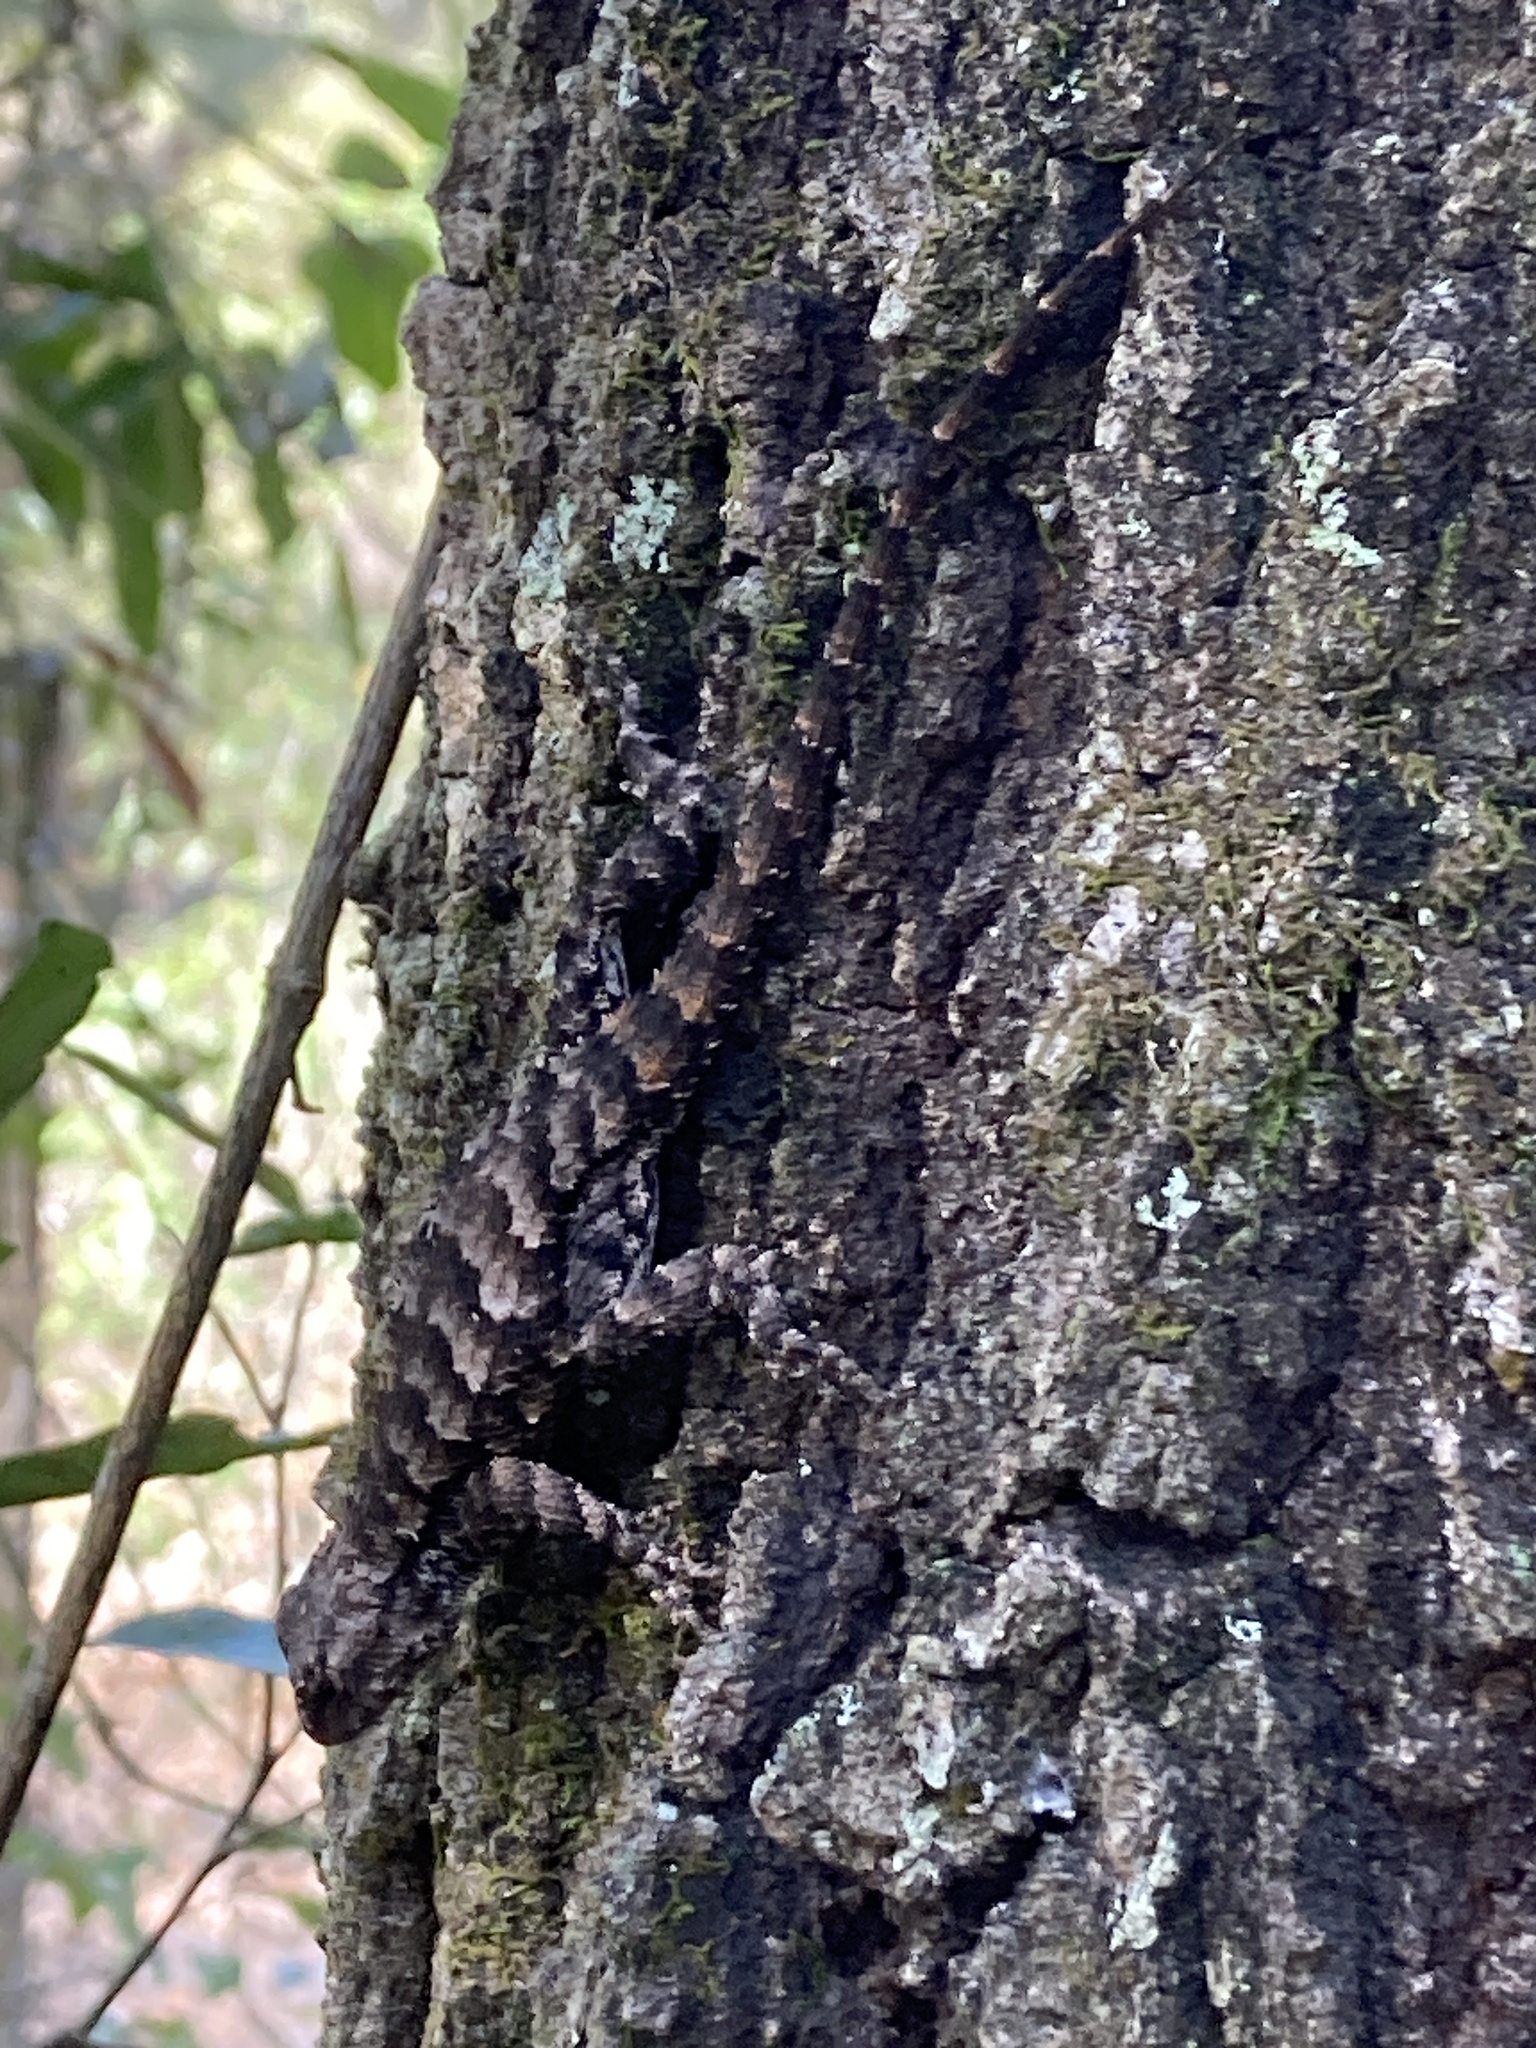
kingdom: Animalia
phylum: Chordata
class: Squamata
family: Phrynosomatidae
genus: Sceloporus
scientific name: Sceloporus undulatus
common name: Eastern fence lizard
